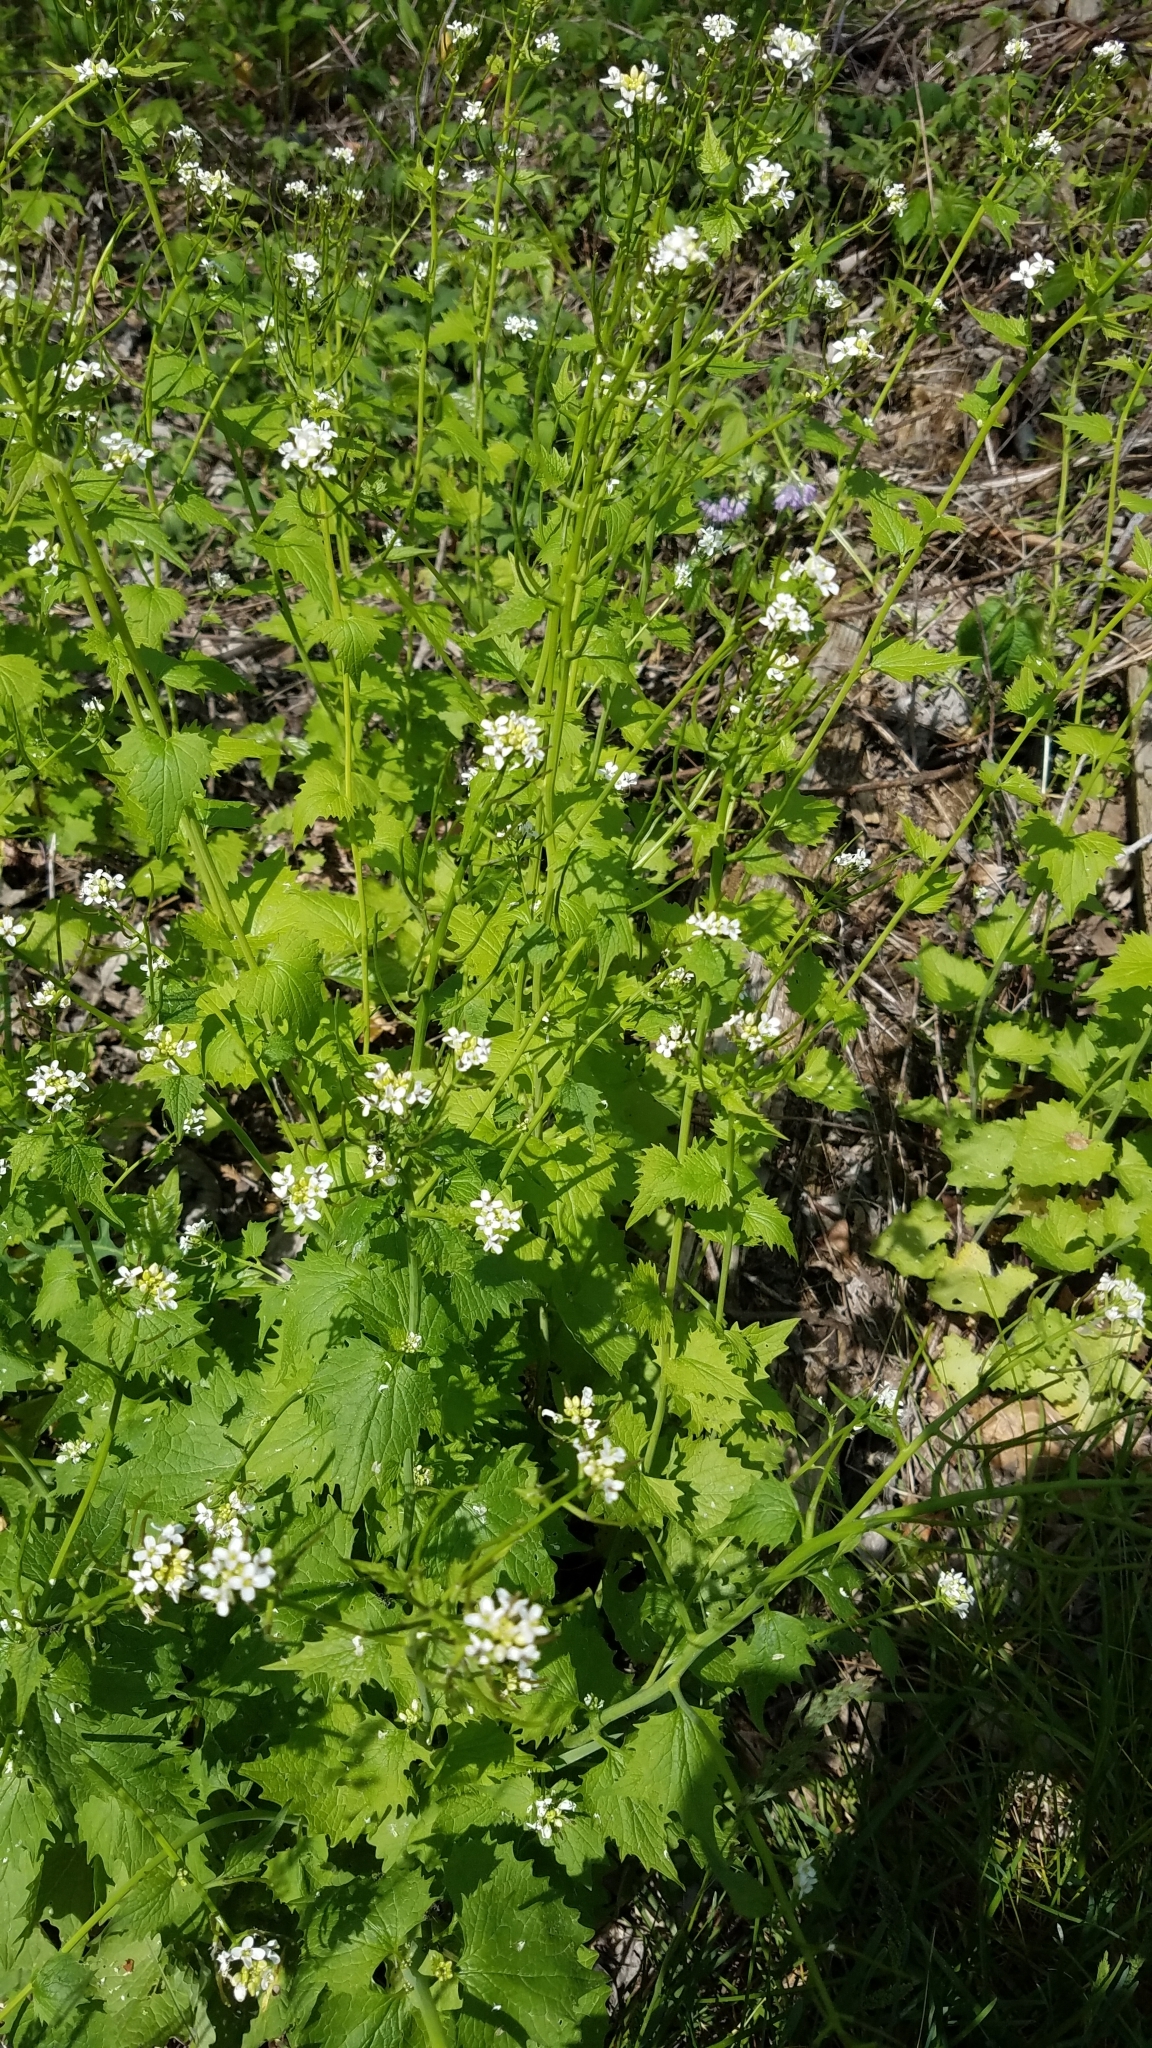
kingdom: Plantae
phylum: Tracheophyta
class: Magnoliopsida
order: Brassicales
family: Brassicaceae
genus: Alliaria
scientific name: Alliaria petiolata
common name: Garlic mustard
